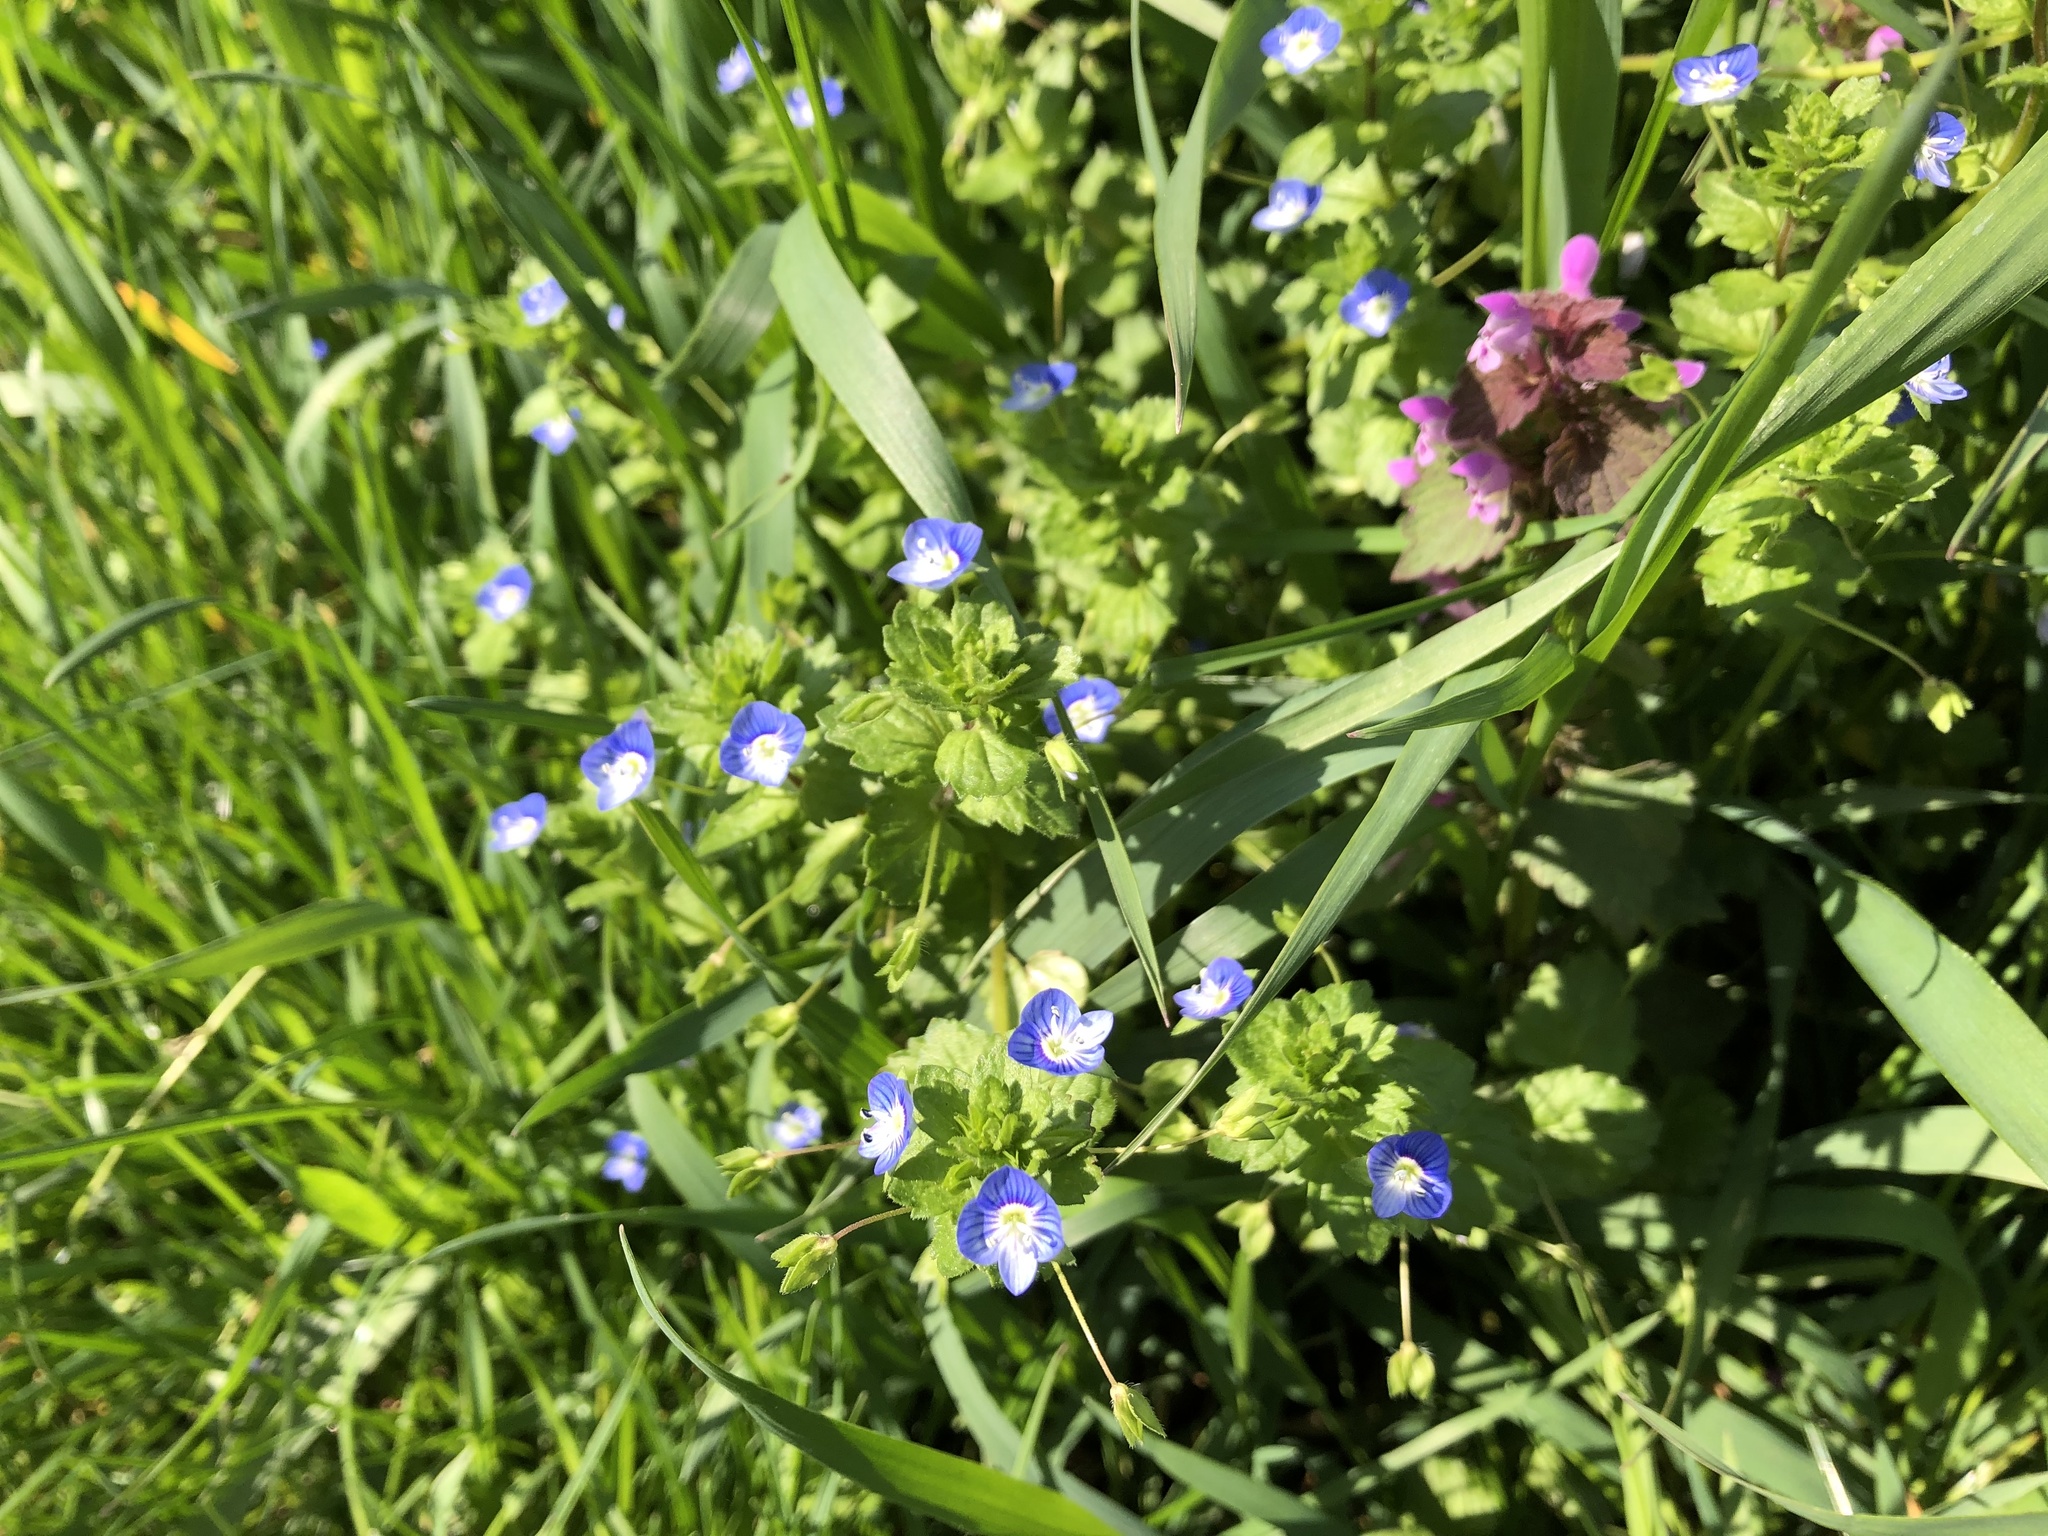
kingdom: Plantae
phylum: Tracheophyta
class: Magnoliopsida
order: Lamiales
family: Plantaginaceae
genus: Veronica
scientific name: Veronica persica
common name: Common field-speedwell
